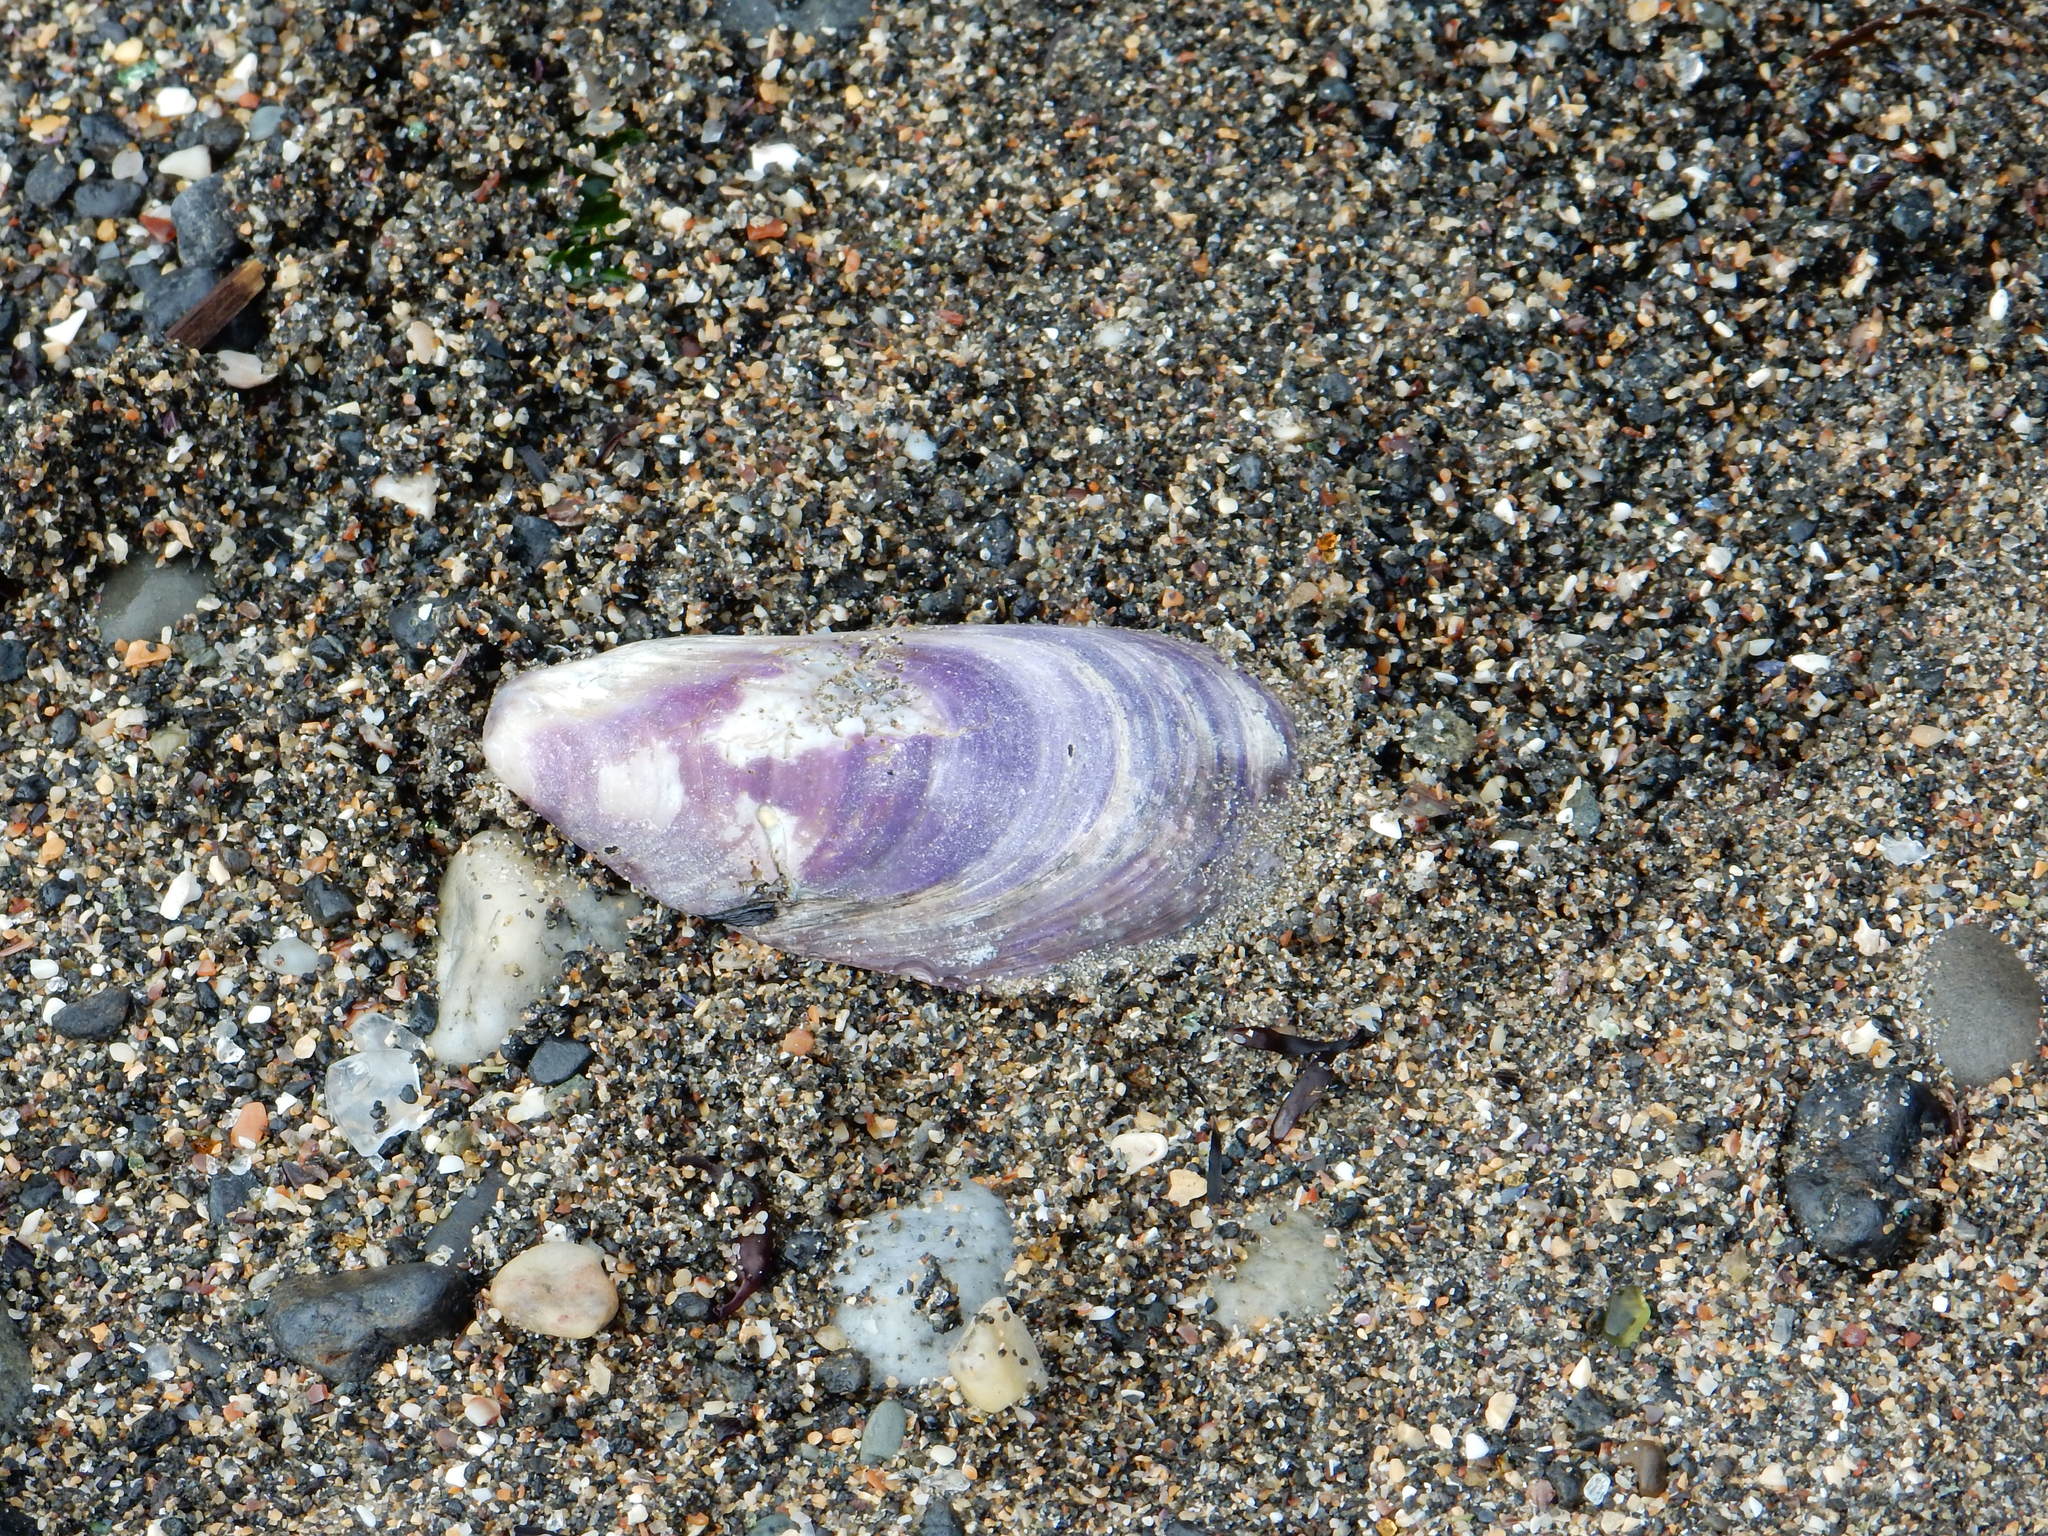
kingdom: Animalia
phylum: Mollusca
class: Bivalvia
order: Mytilida
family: Mytilidae
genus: Modiolus
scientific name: Modiolus modiolus
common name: Horse-mussel
